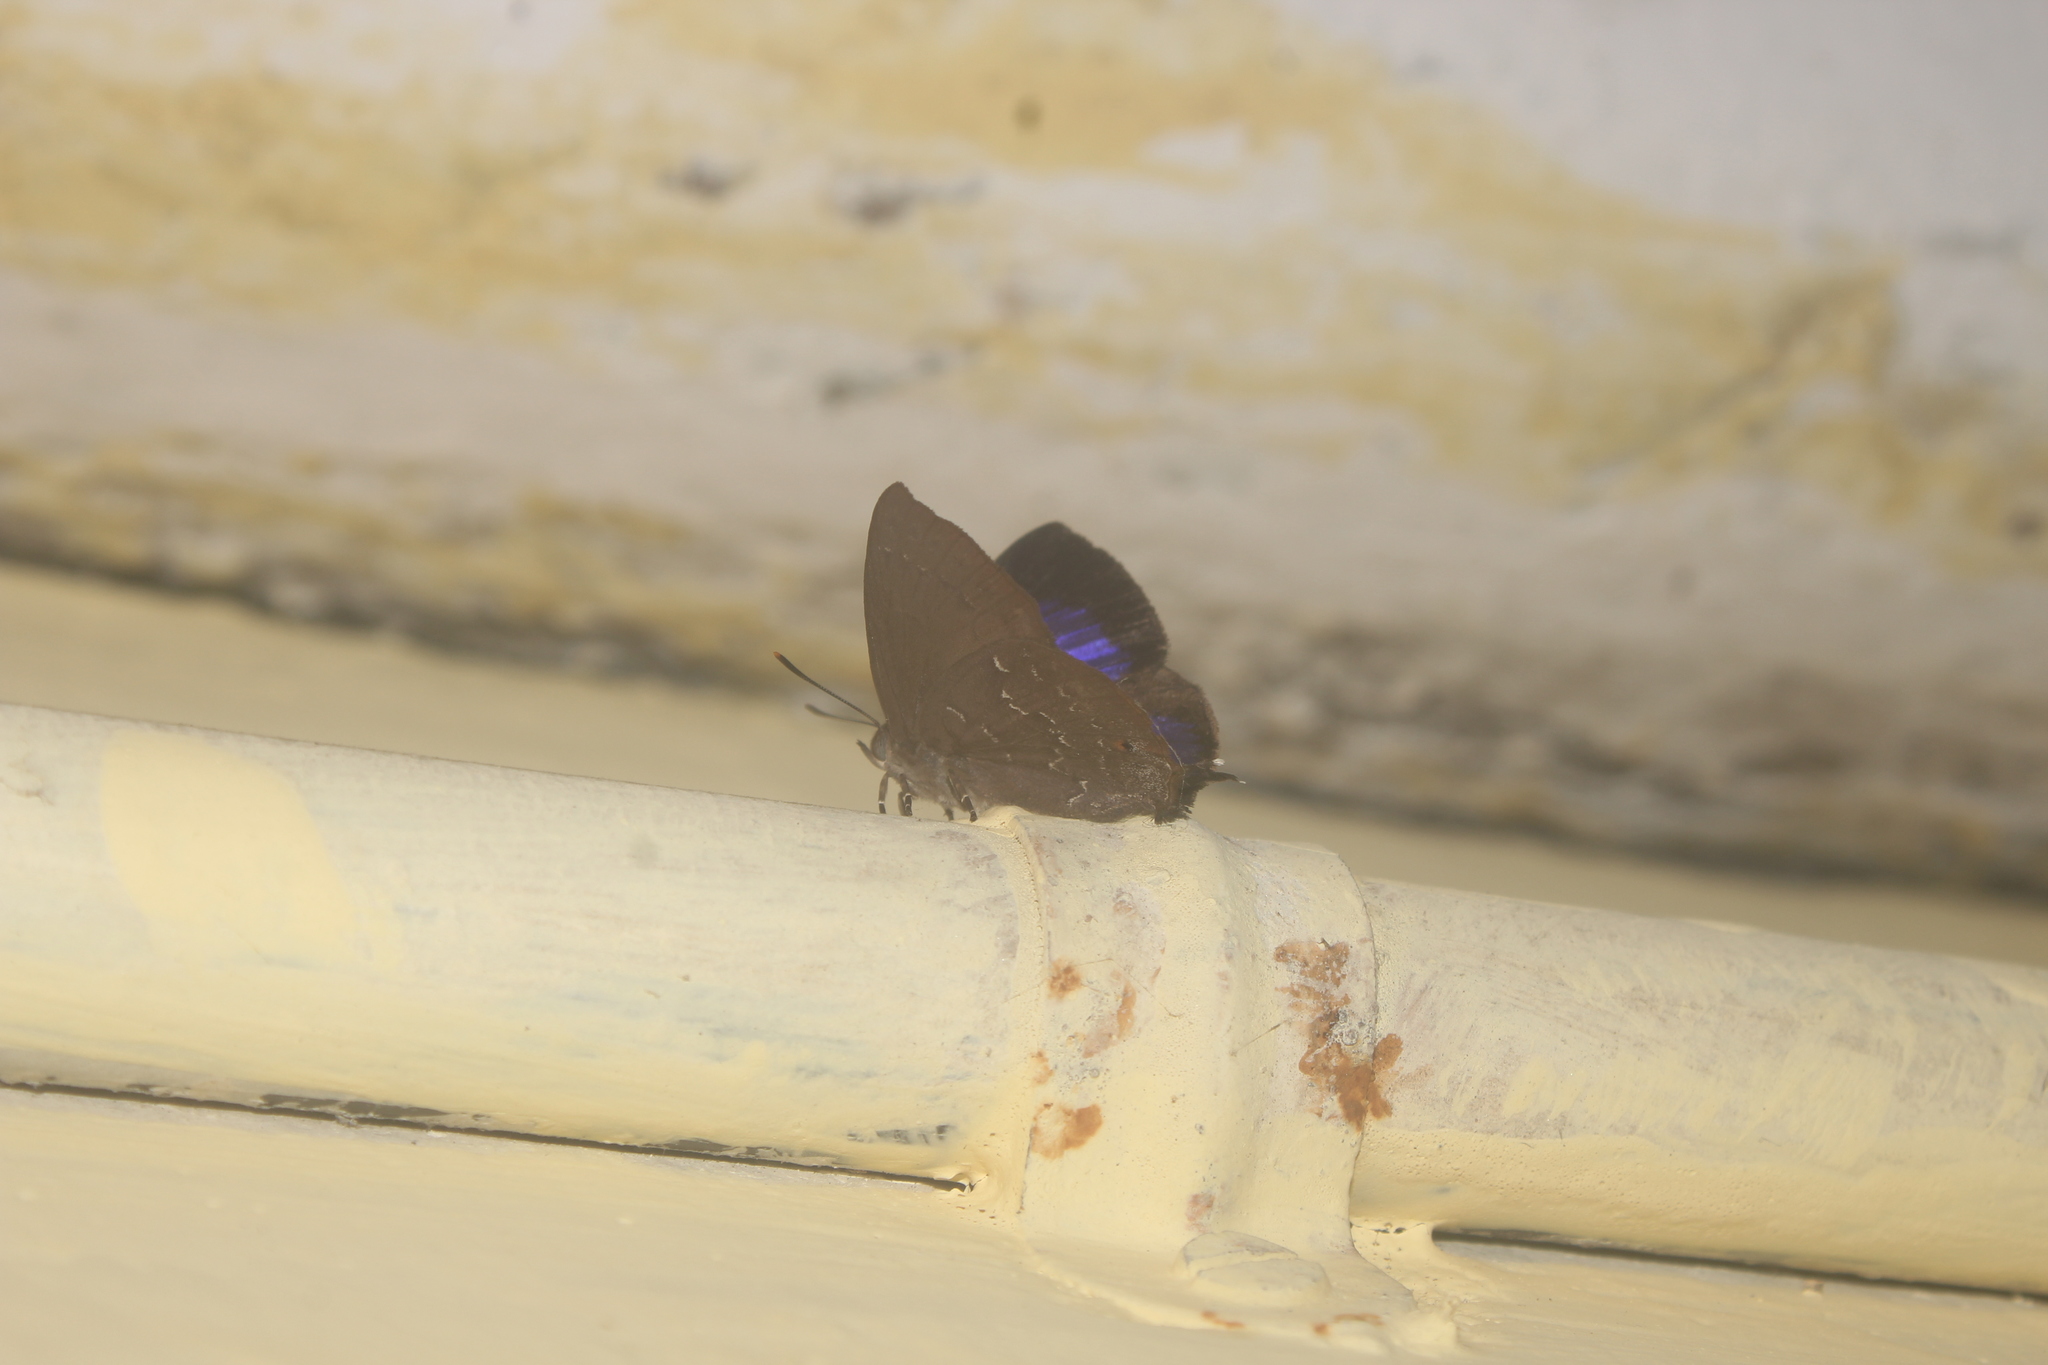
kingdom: Animalia
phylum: Arthropoda
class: Insecta
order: Lepidoptera
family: Lycaenidae
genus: Zinaspa
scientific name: Zinaspa todara
